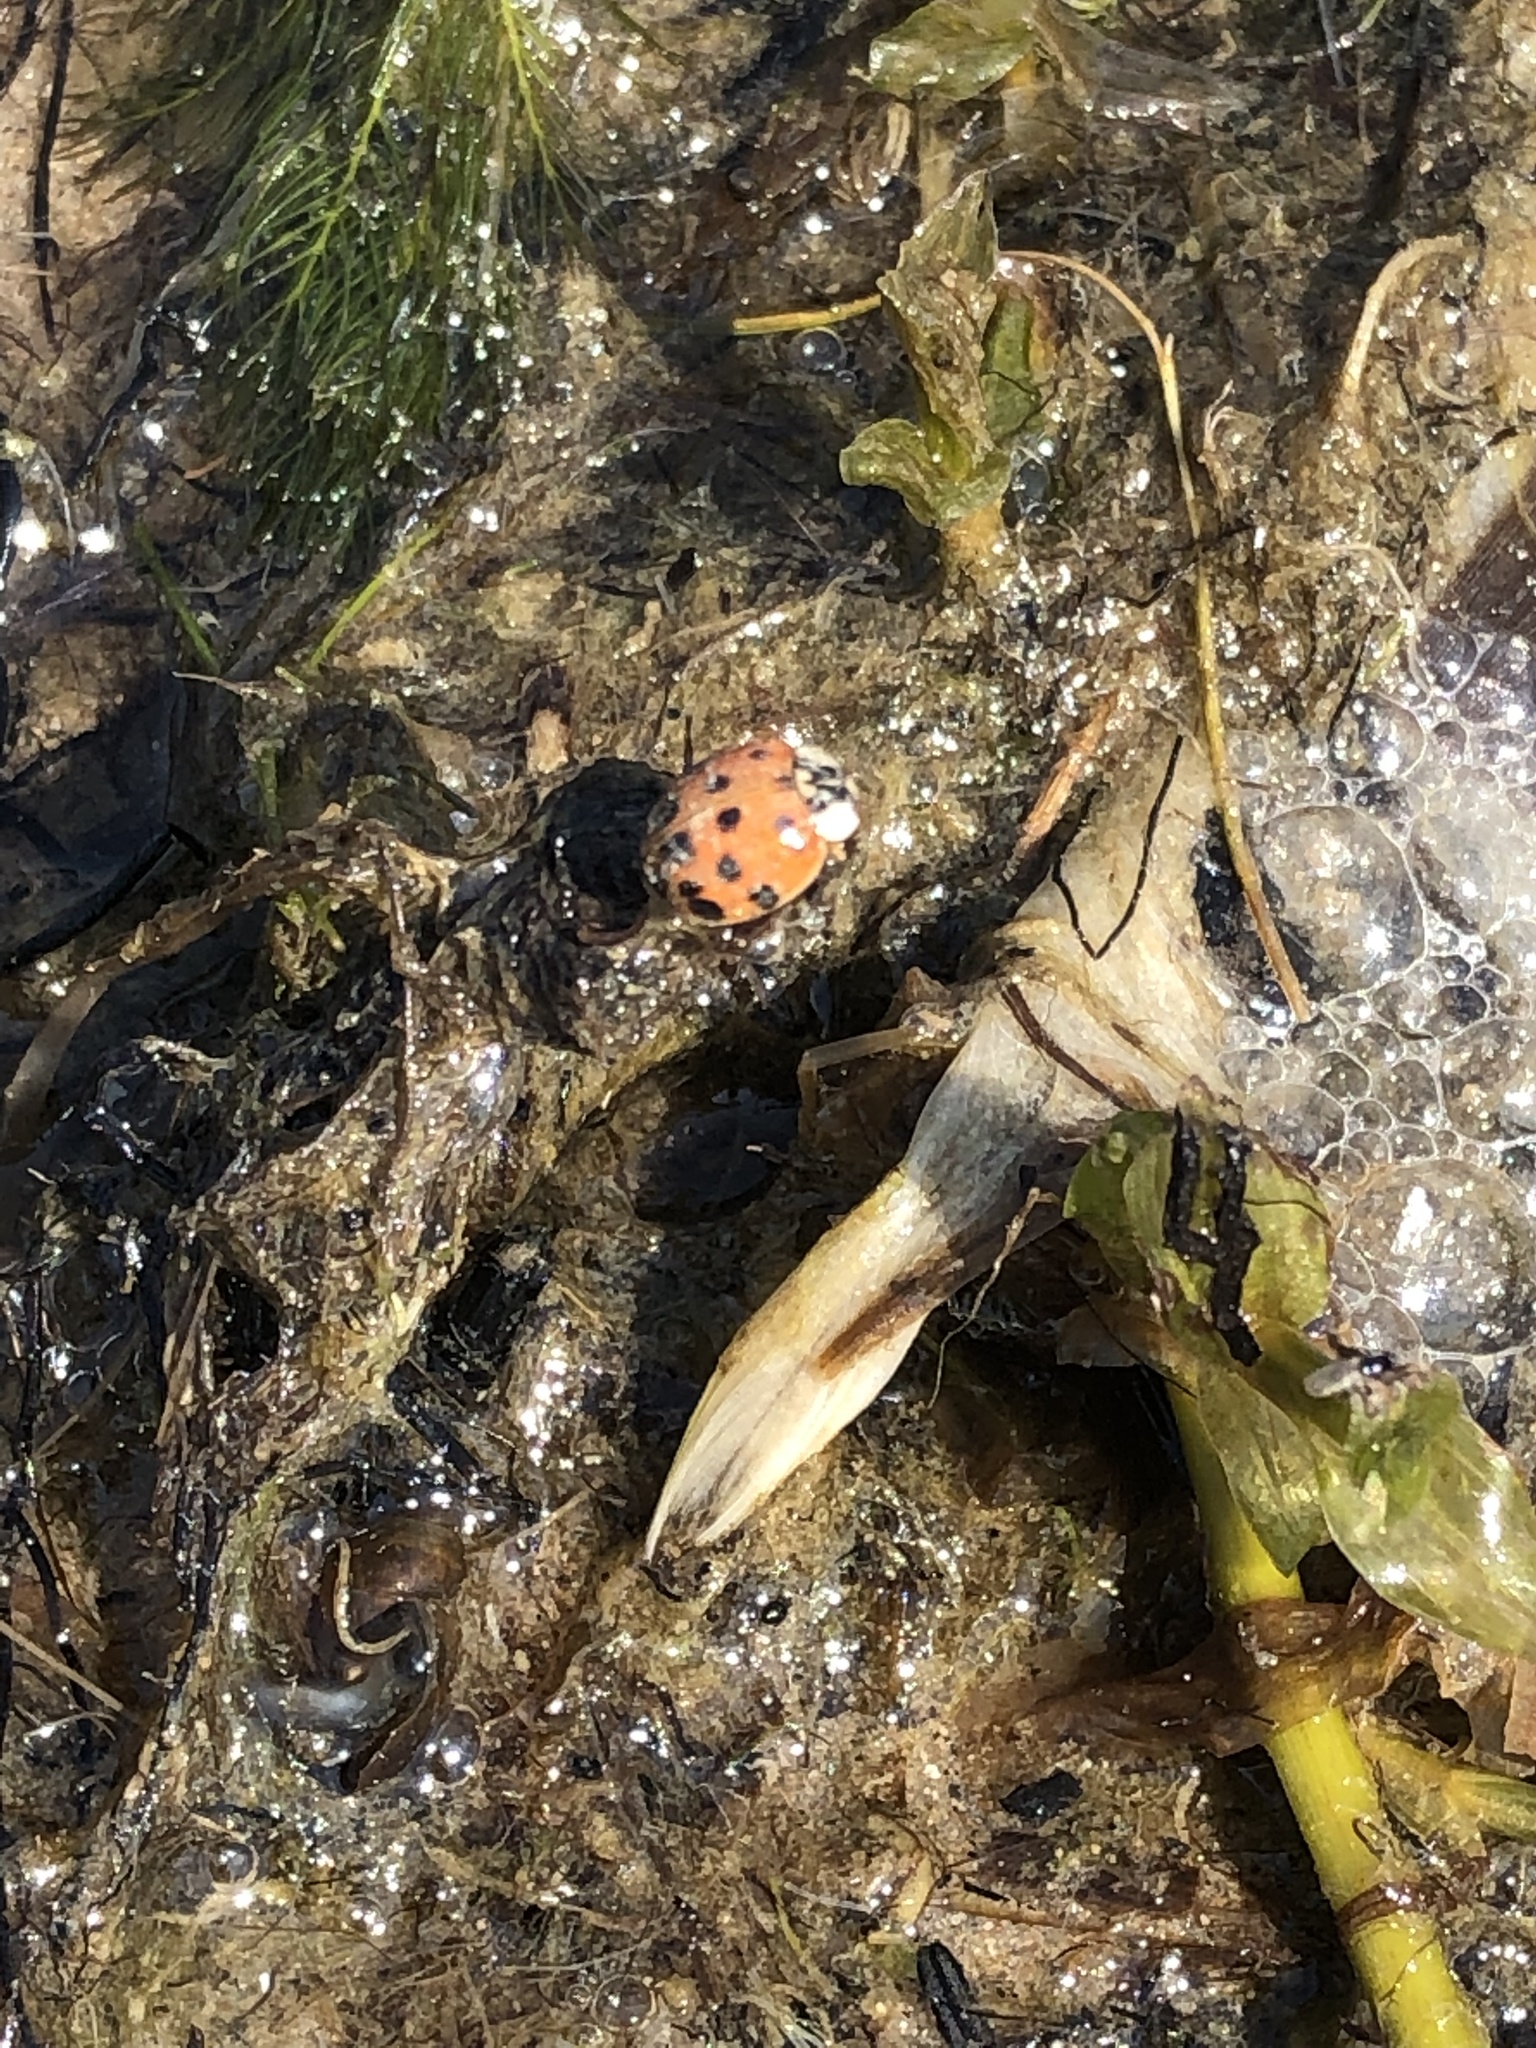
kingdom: Animalia
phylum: Arthropoda
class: Insecta
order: Coleoptera
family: Coccinellidae
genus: Harmonia
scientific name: Harmonia axyridis
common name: Harlequin ladybird
